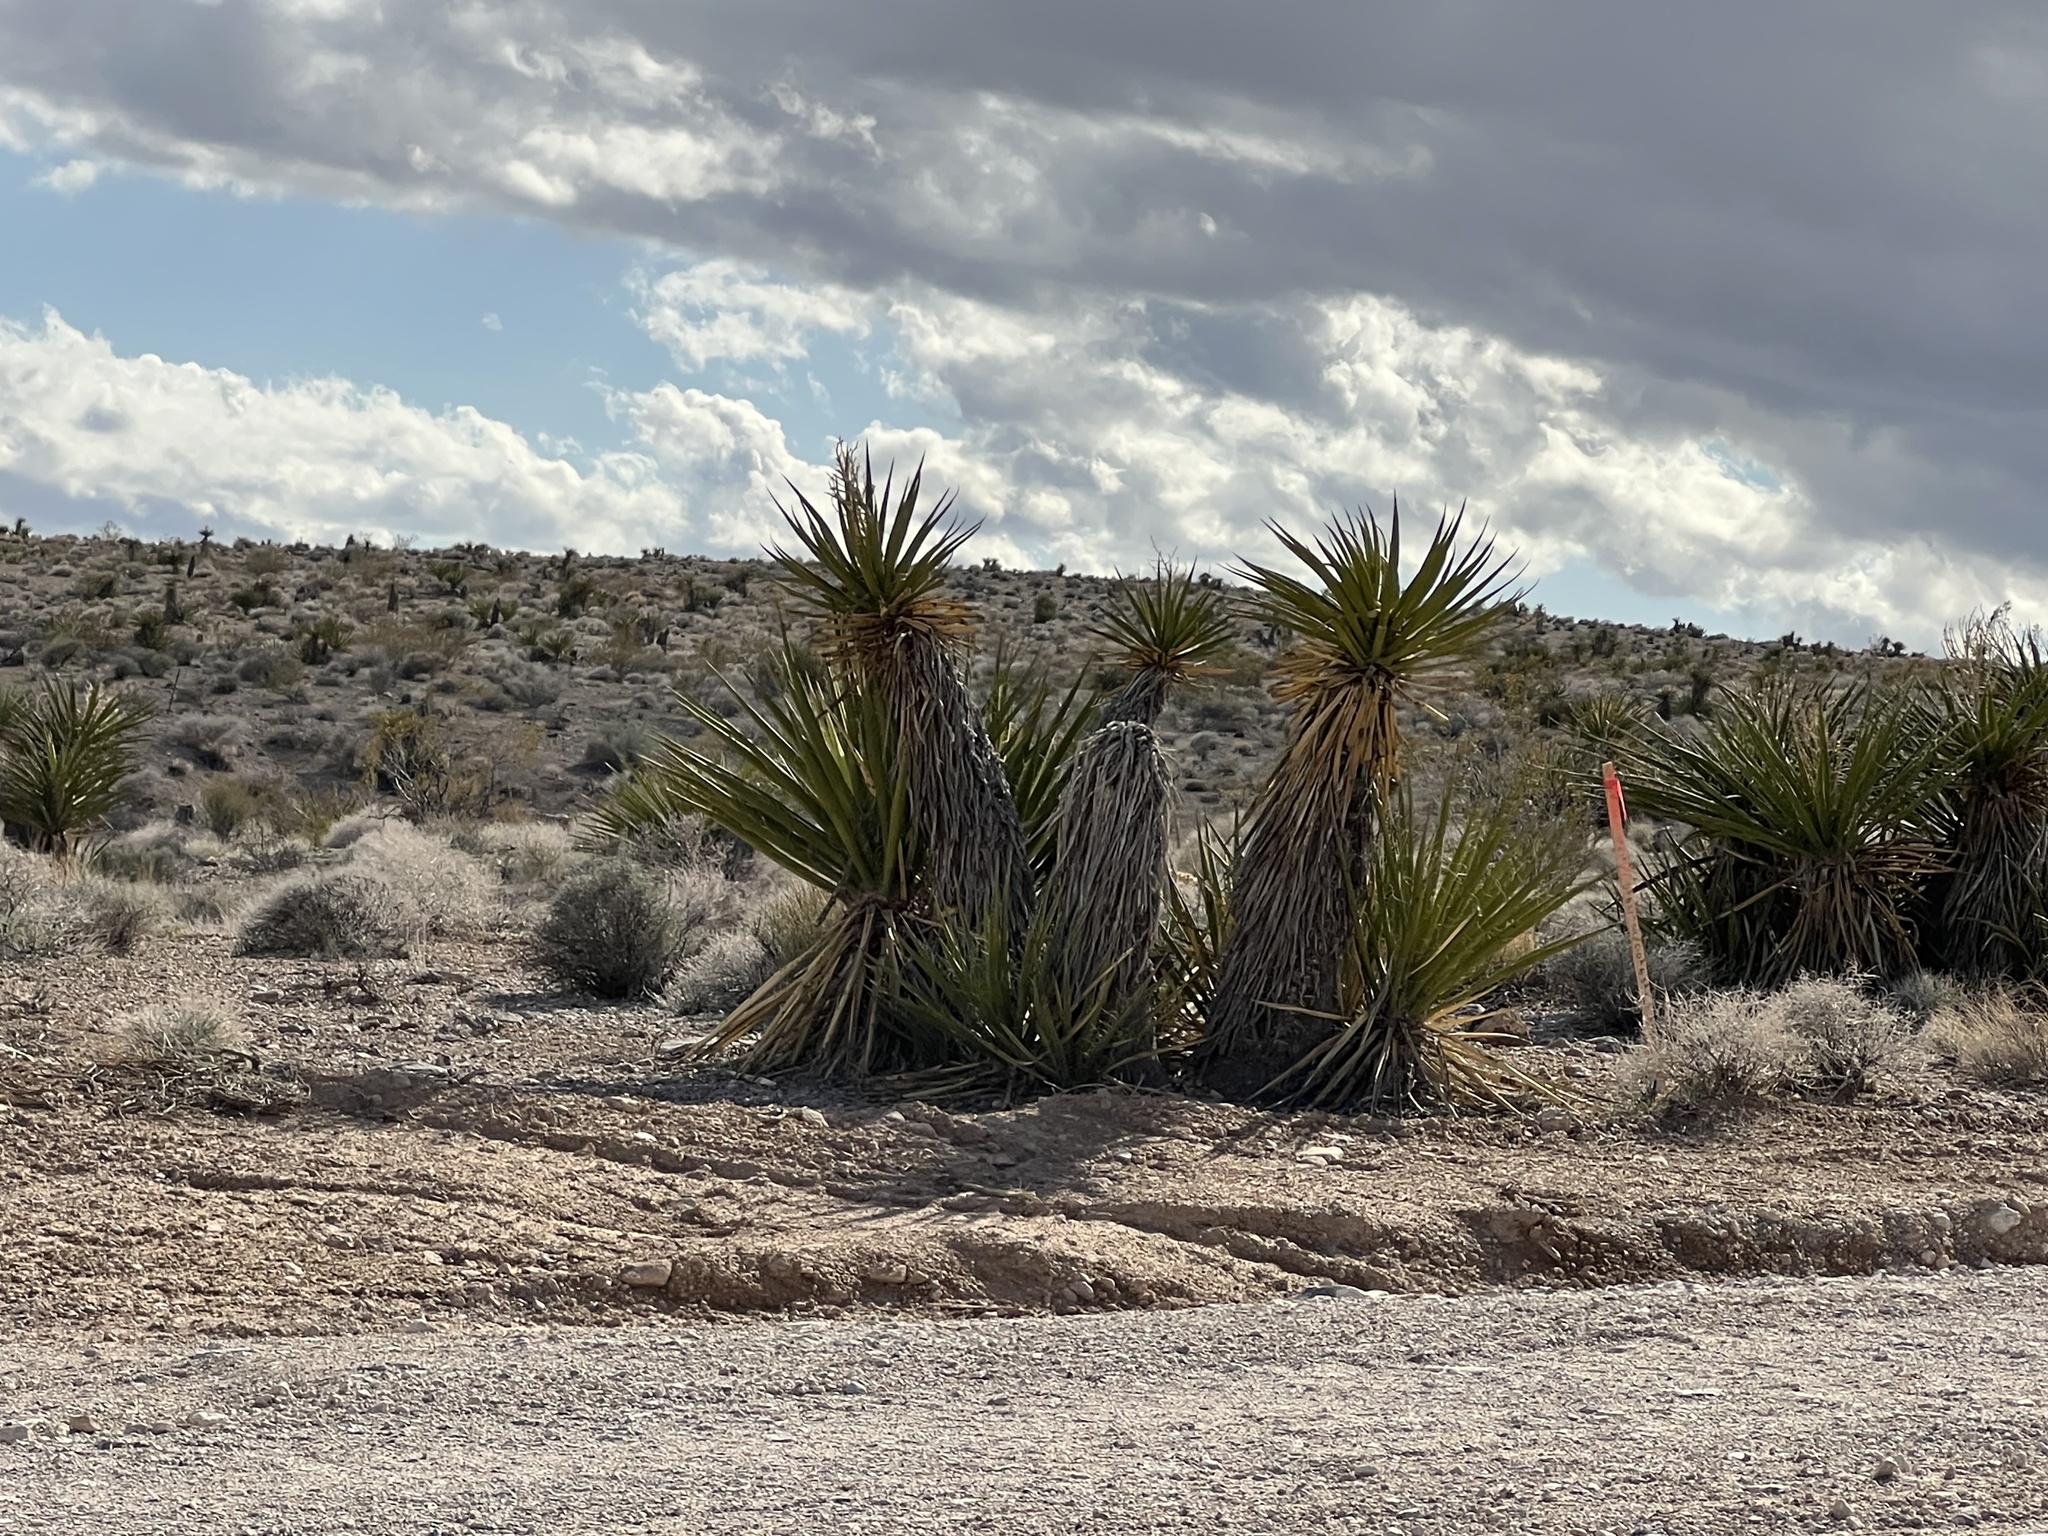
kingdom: Plantae
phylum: Tracheophyta
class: Liliopsida
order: Asparagales
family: Asparagaceae
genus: Yucca
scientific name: Yucca schidigera
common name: Mojave yucca
